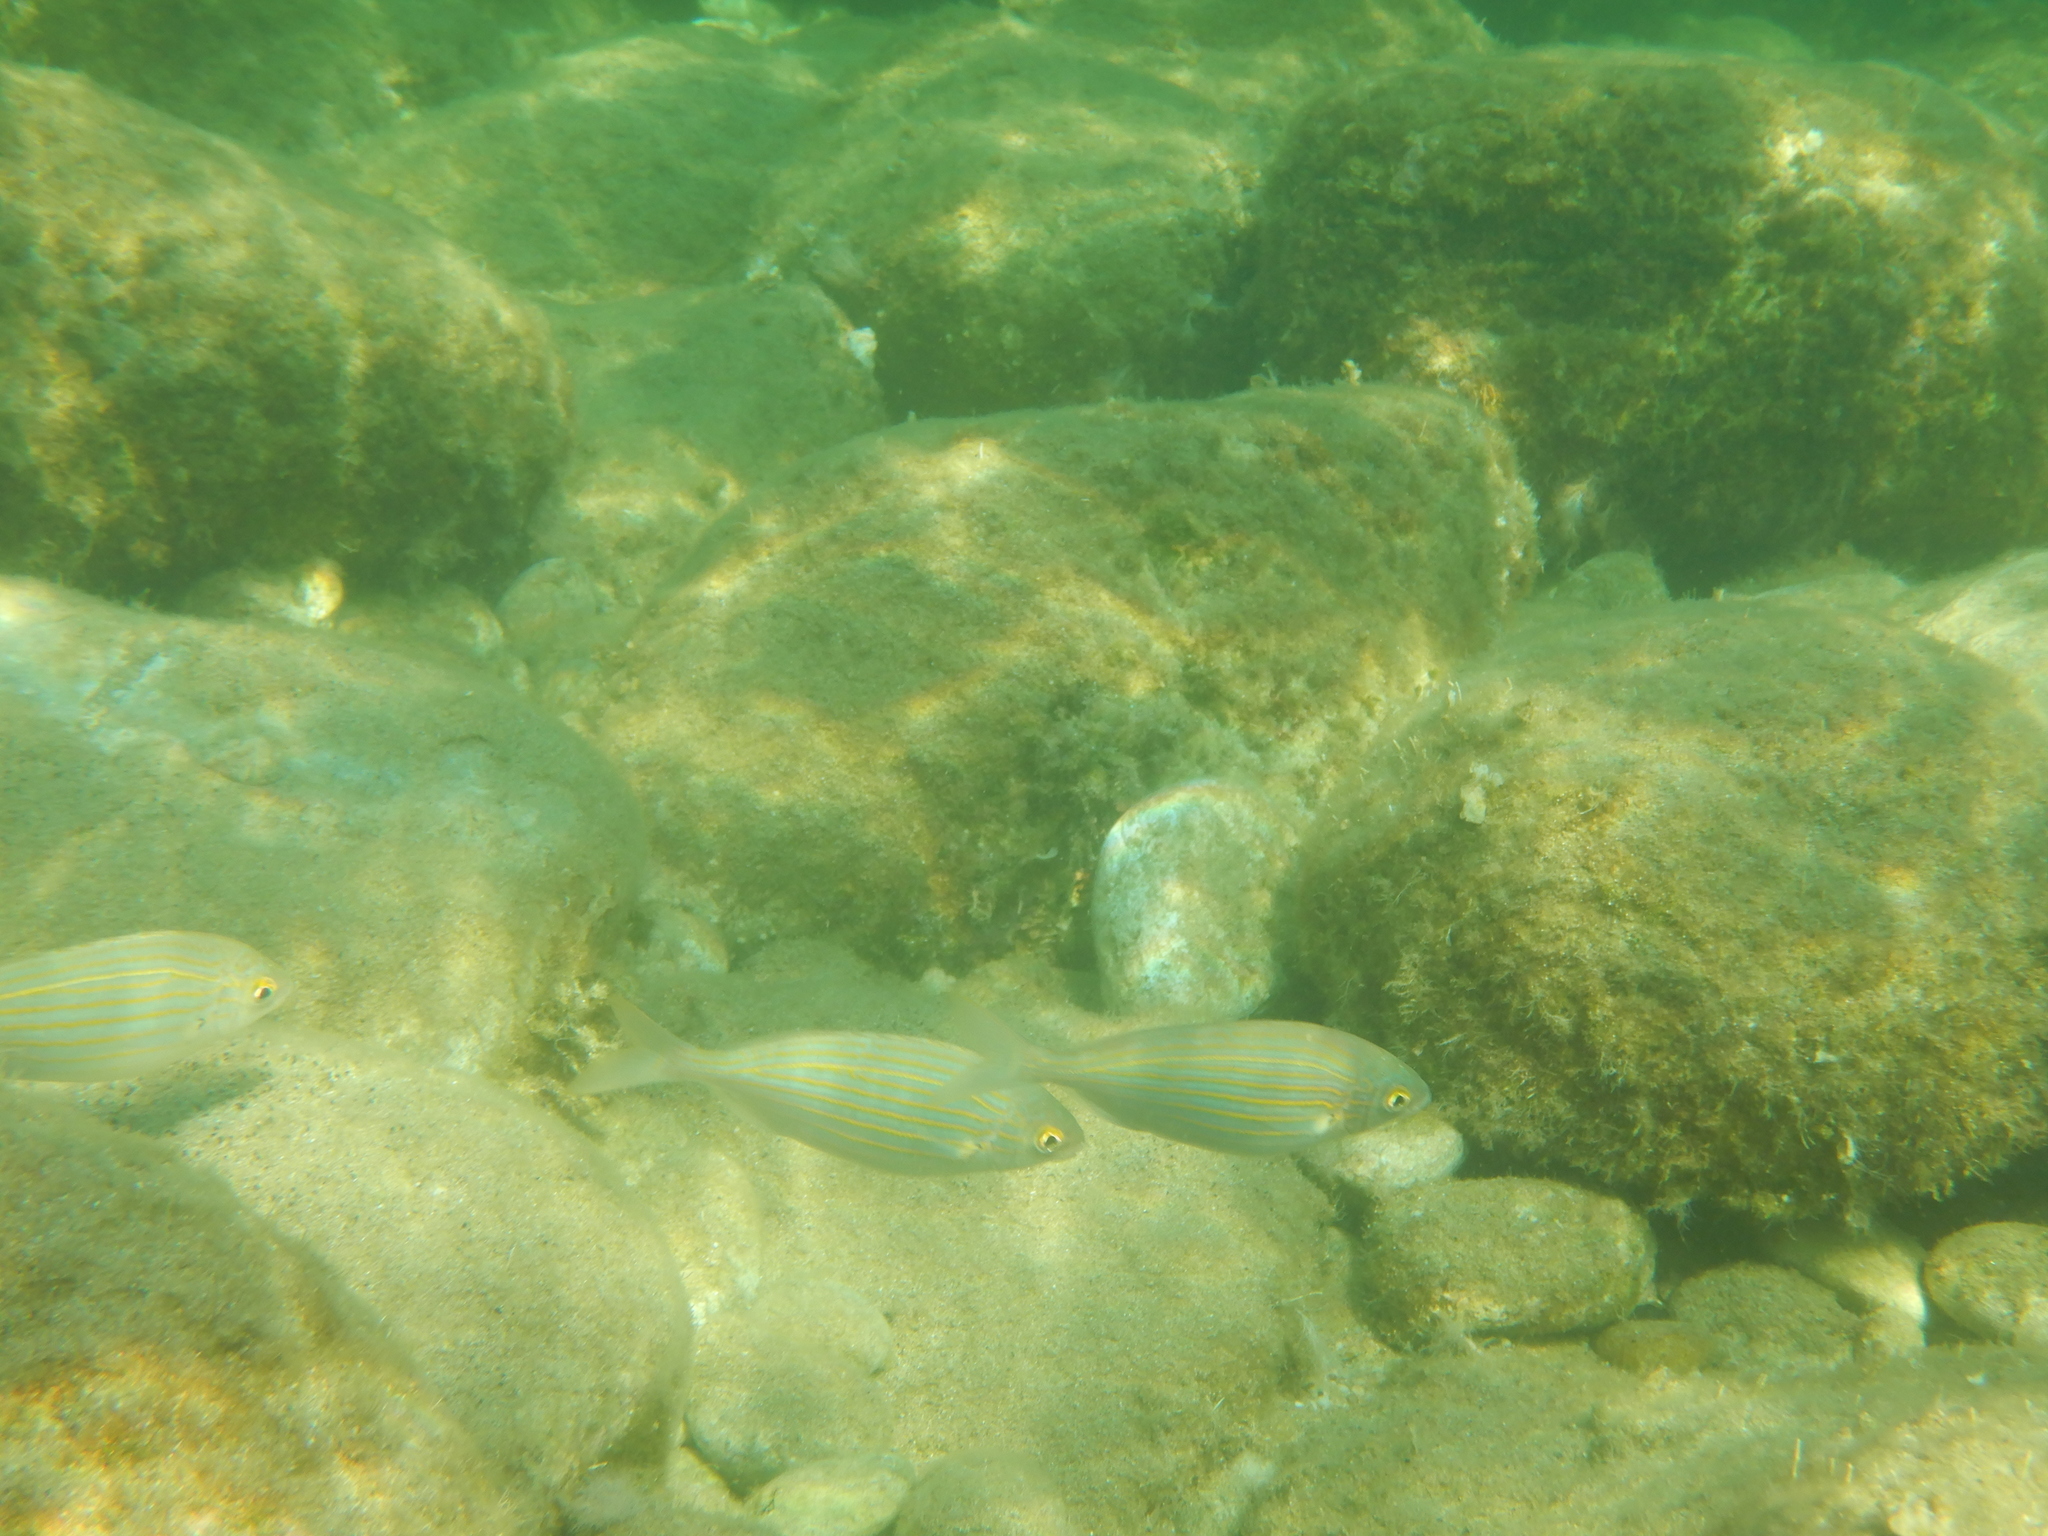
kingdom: Animalia
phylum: Chordata
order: Perciformes
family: Sparidae
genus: Sarpa
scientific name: Sarpa salpa
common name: Salema
